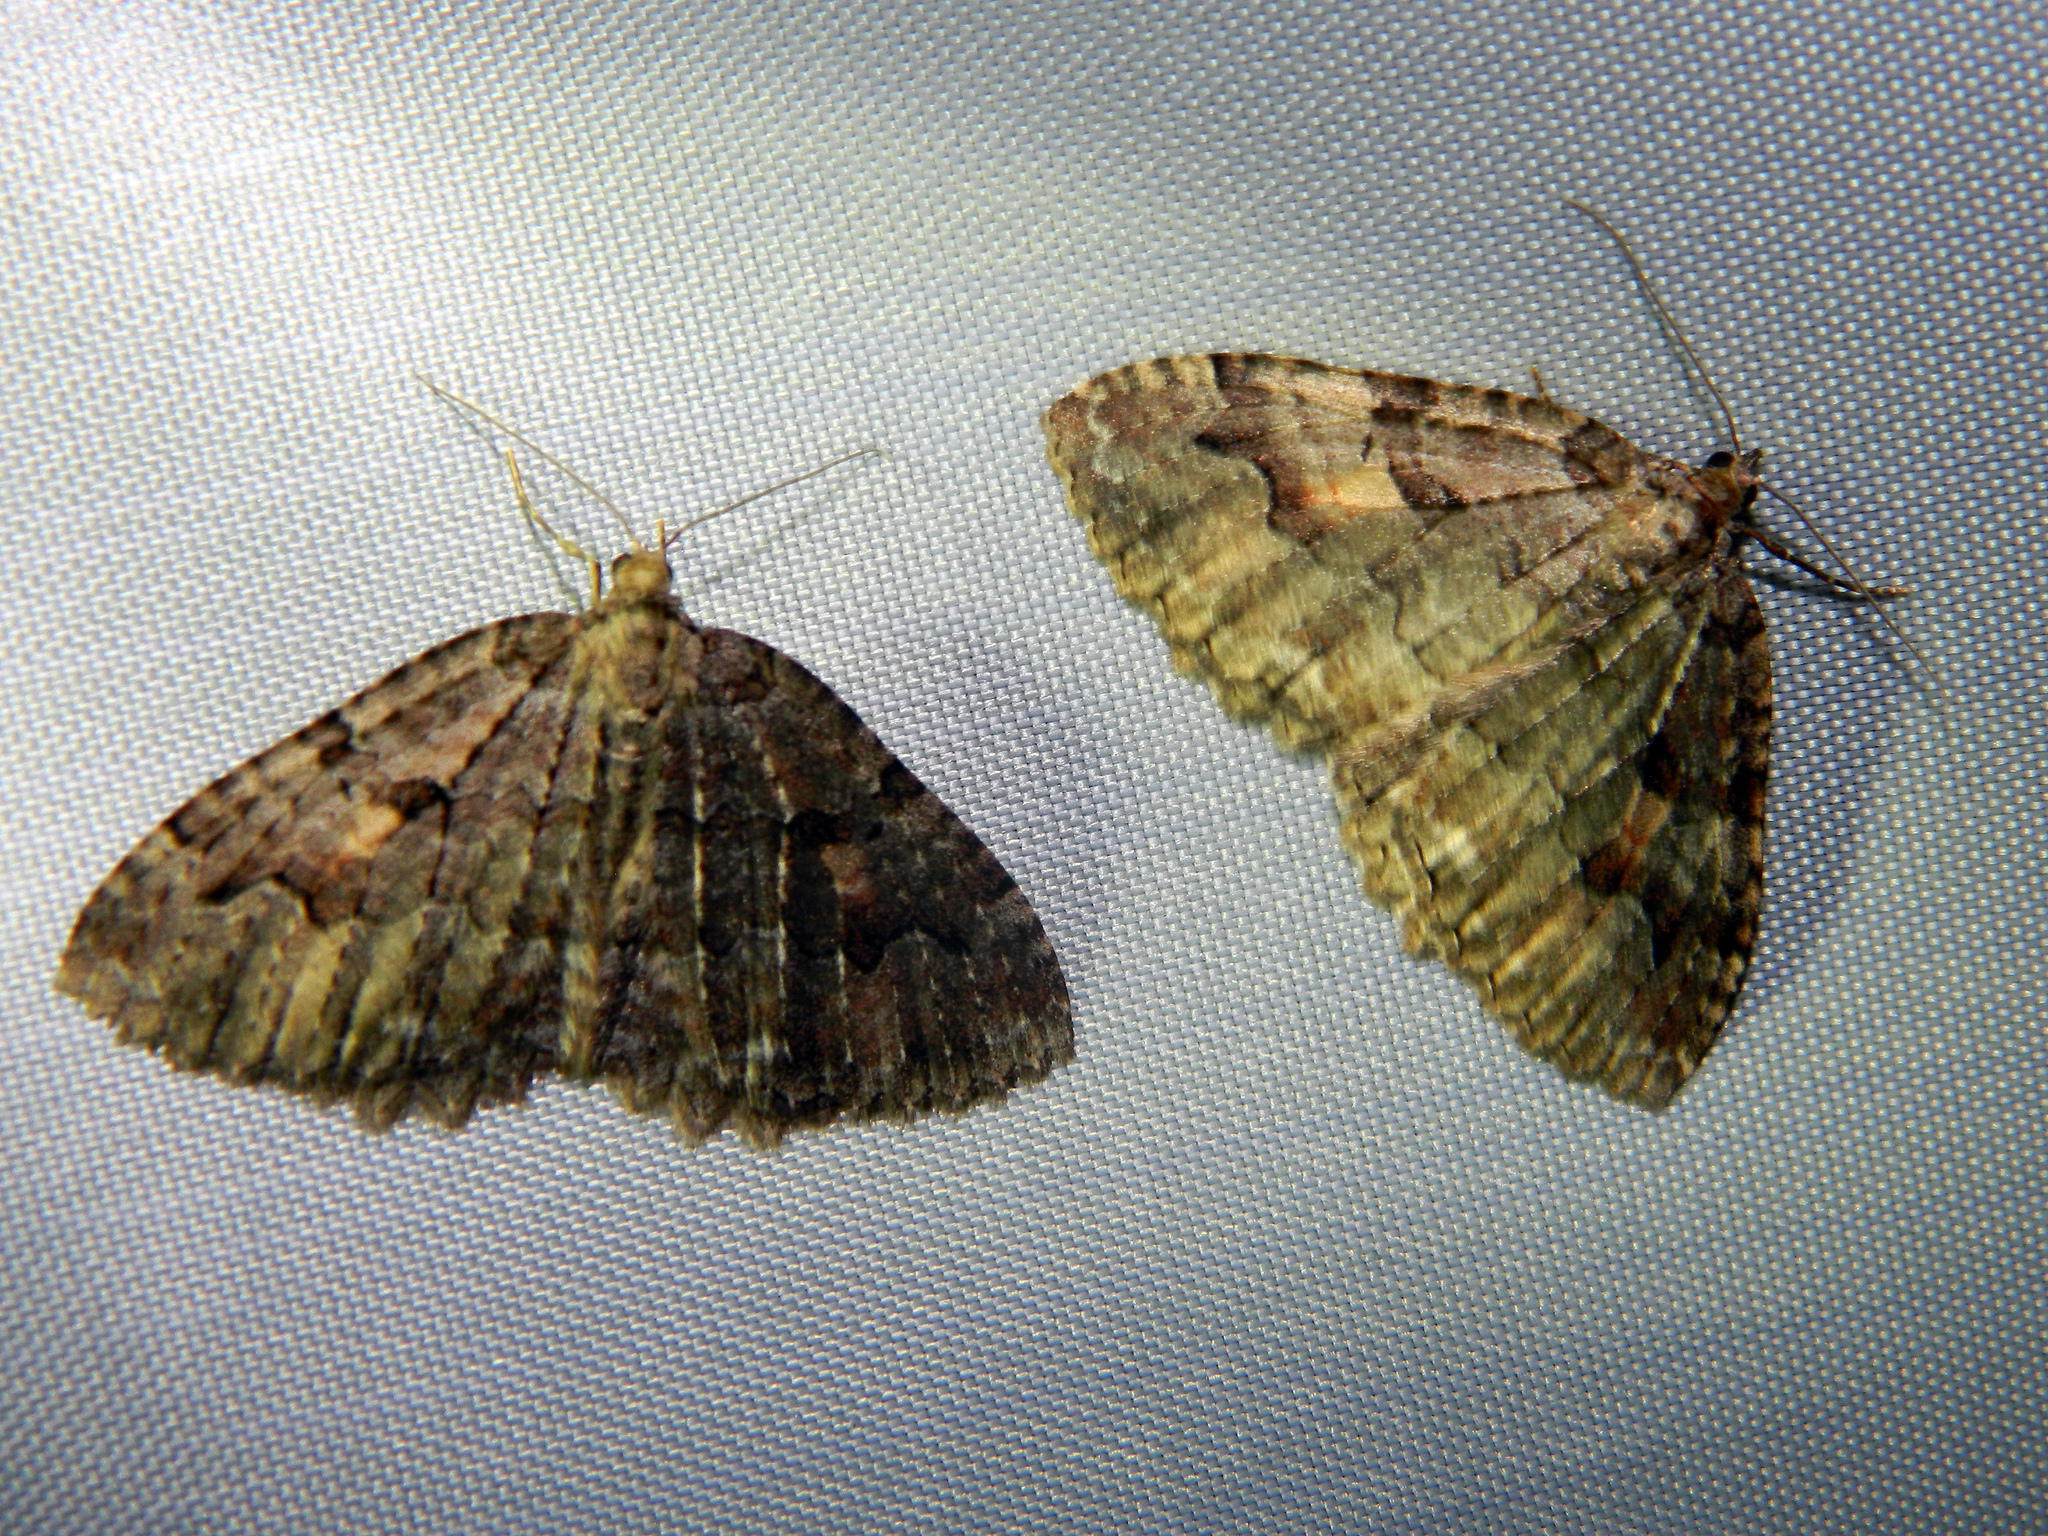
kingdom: Animalia
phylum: Arthropoda
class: Insecta
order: Lepidoptera
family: Geometridae
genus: Triphosa
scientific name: Triphosa haesitata
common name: Tissue moth
